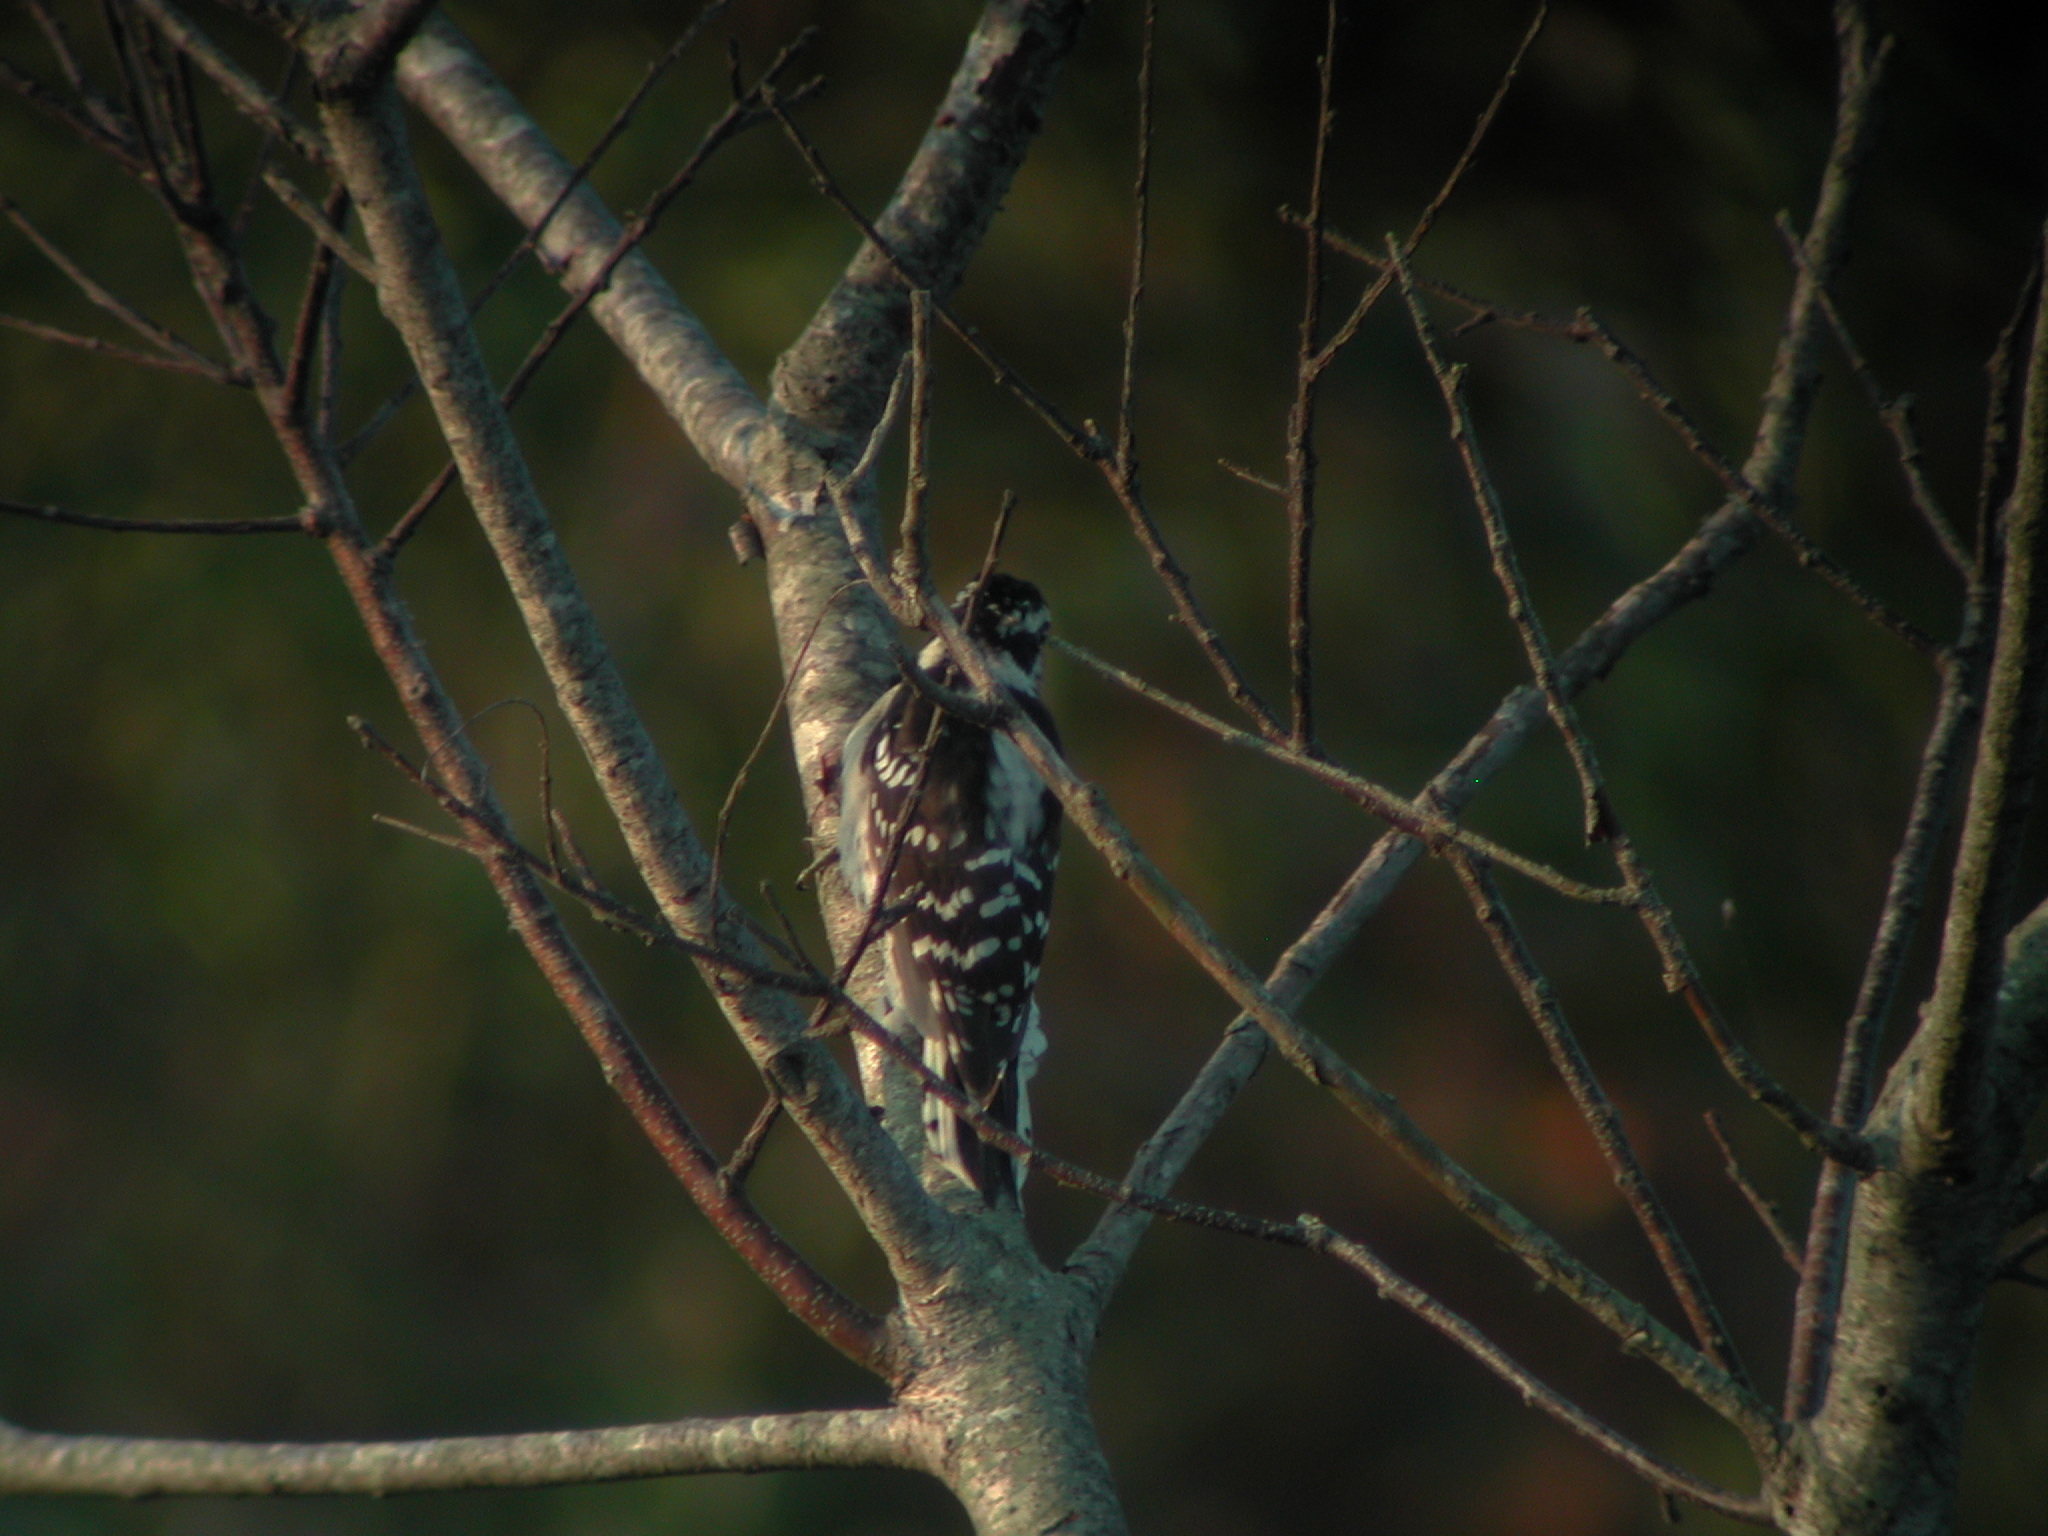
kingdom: Animalia
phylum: Chordata
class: Aves
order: Piciformes
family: Picidae
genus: Dryobates
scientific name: Dryobates pubescens
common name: Downy woodpecker
